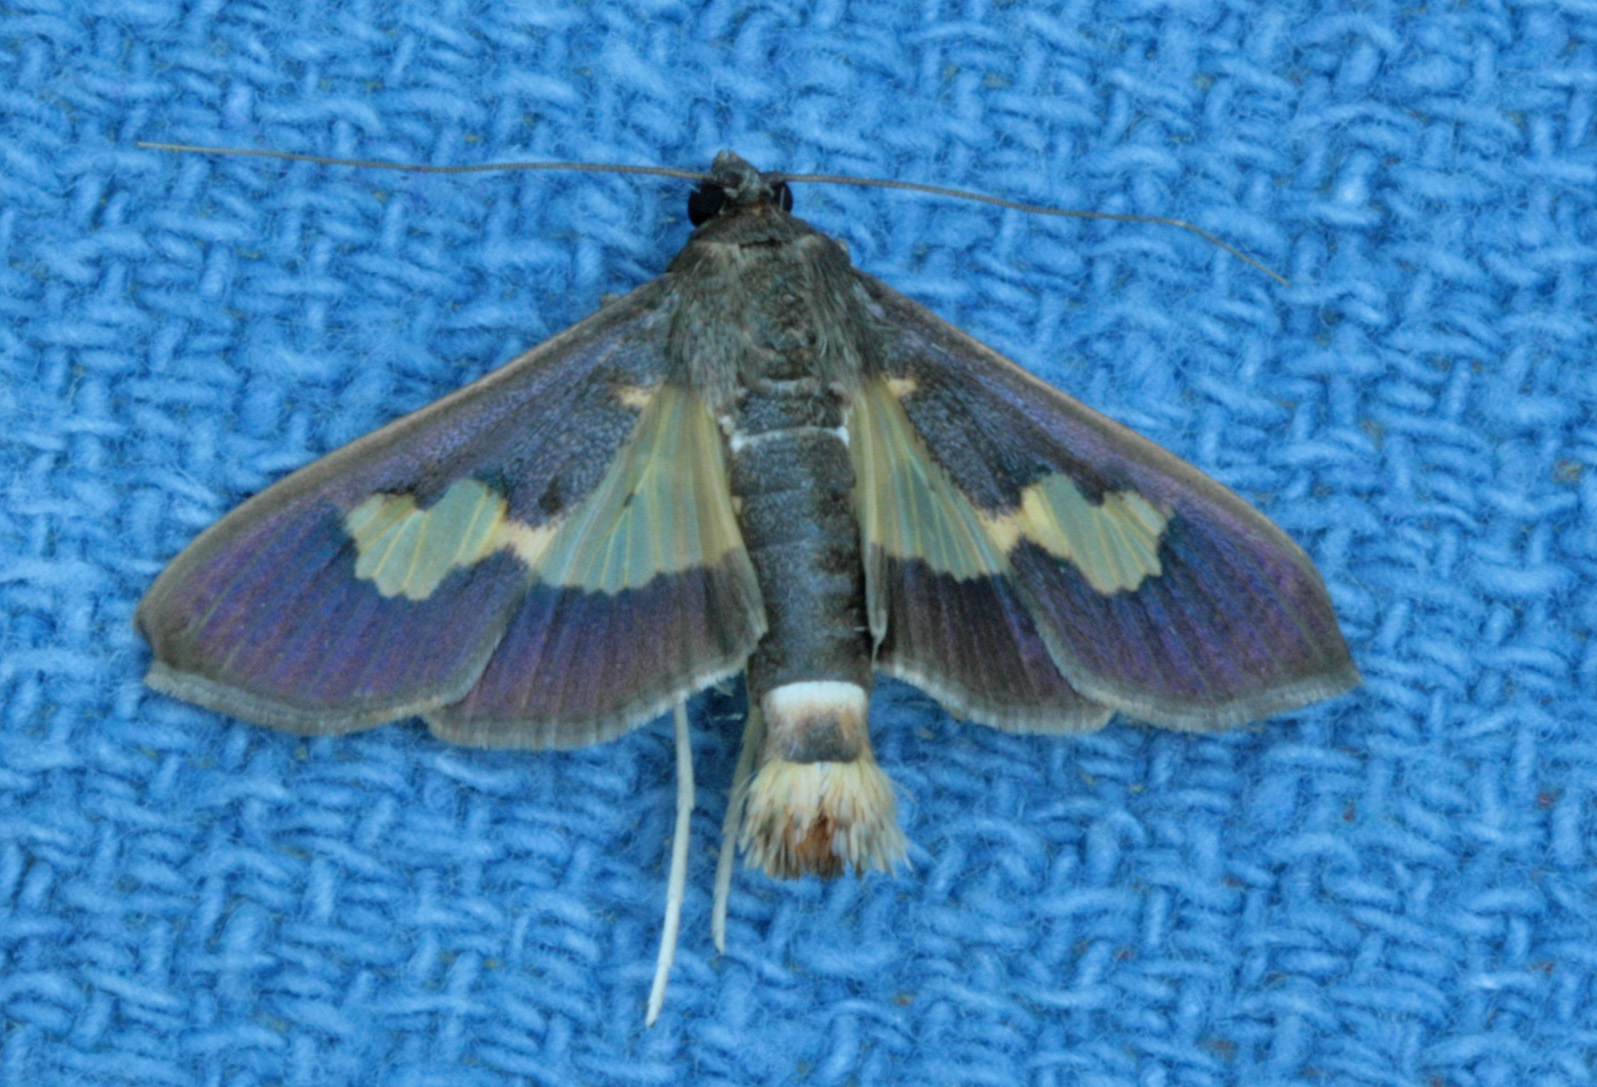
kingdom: Animalia
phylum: Arthropoda
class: Insecta
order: Lepidoptera
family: Crambidae
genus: Cryptographis
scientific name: Cryptographis nitidalis
